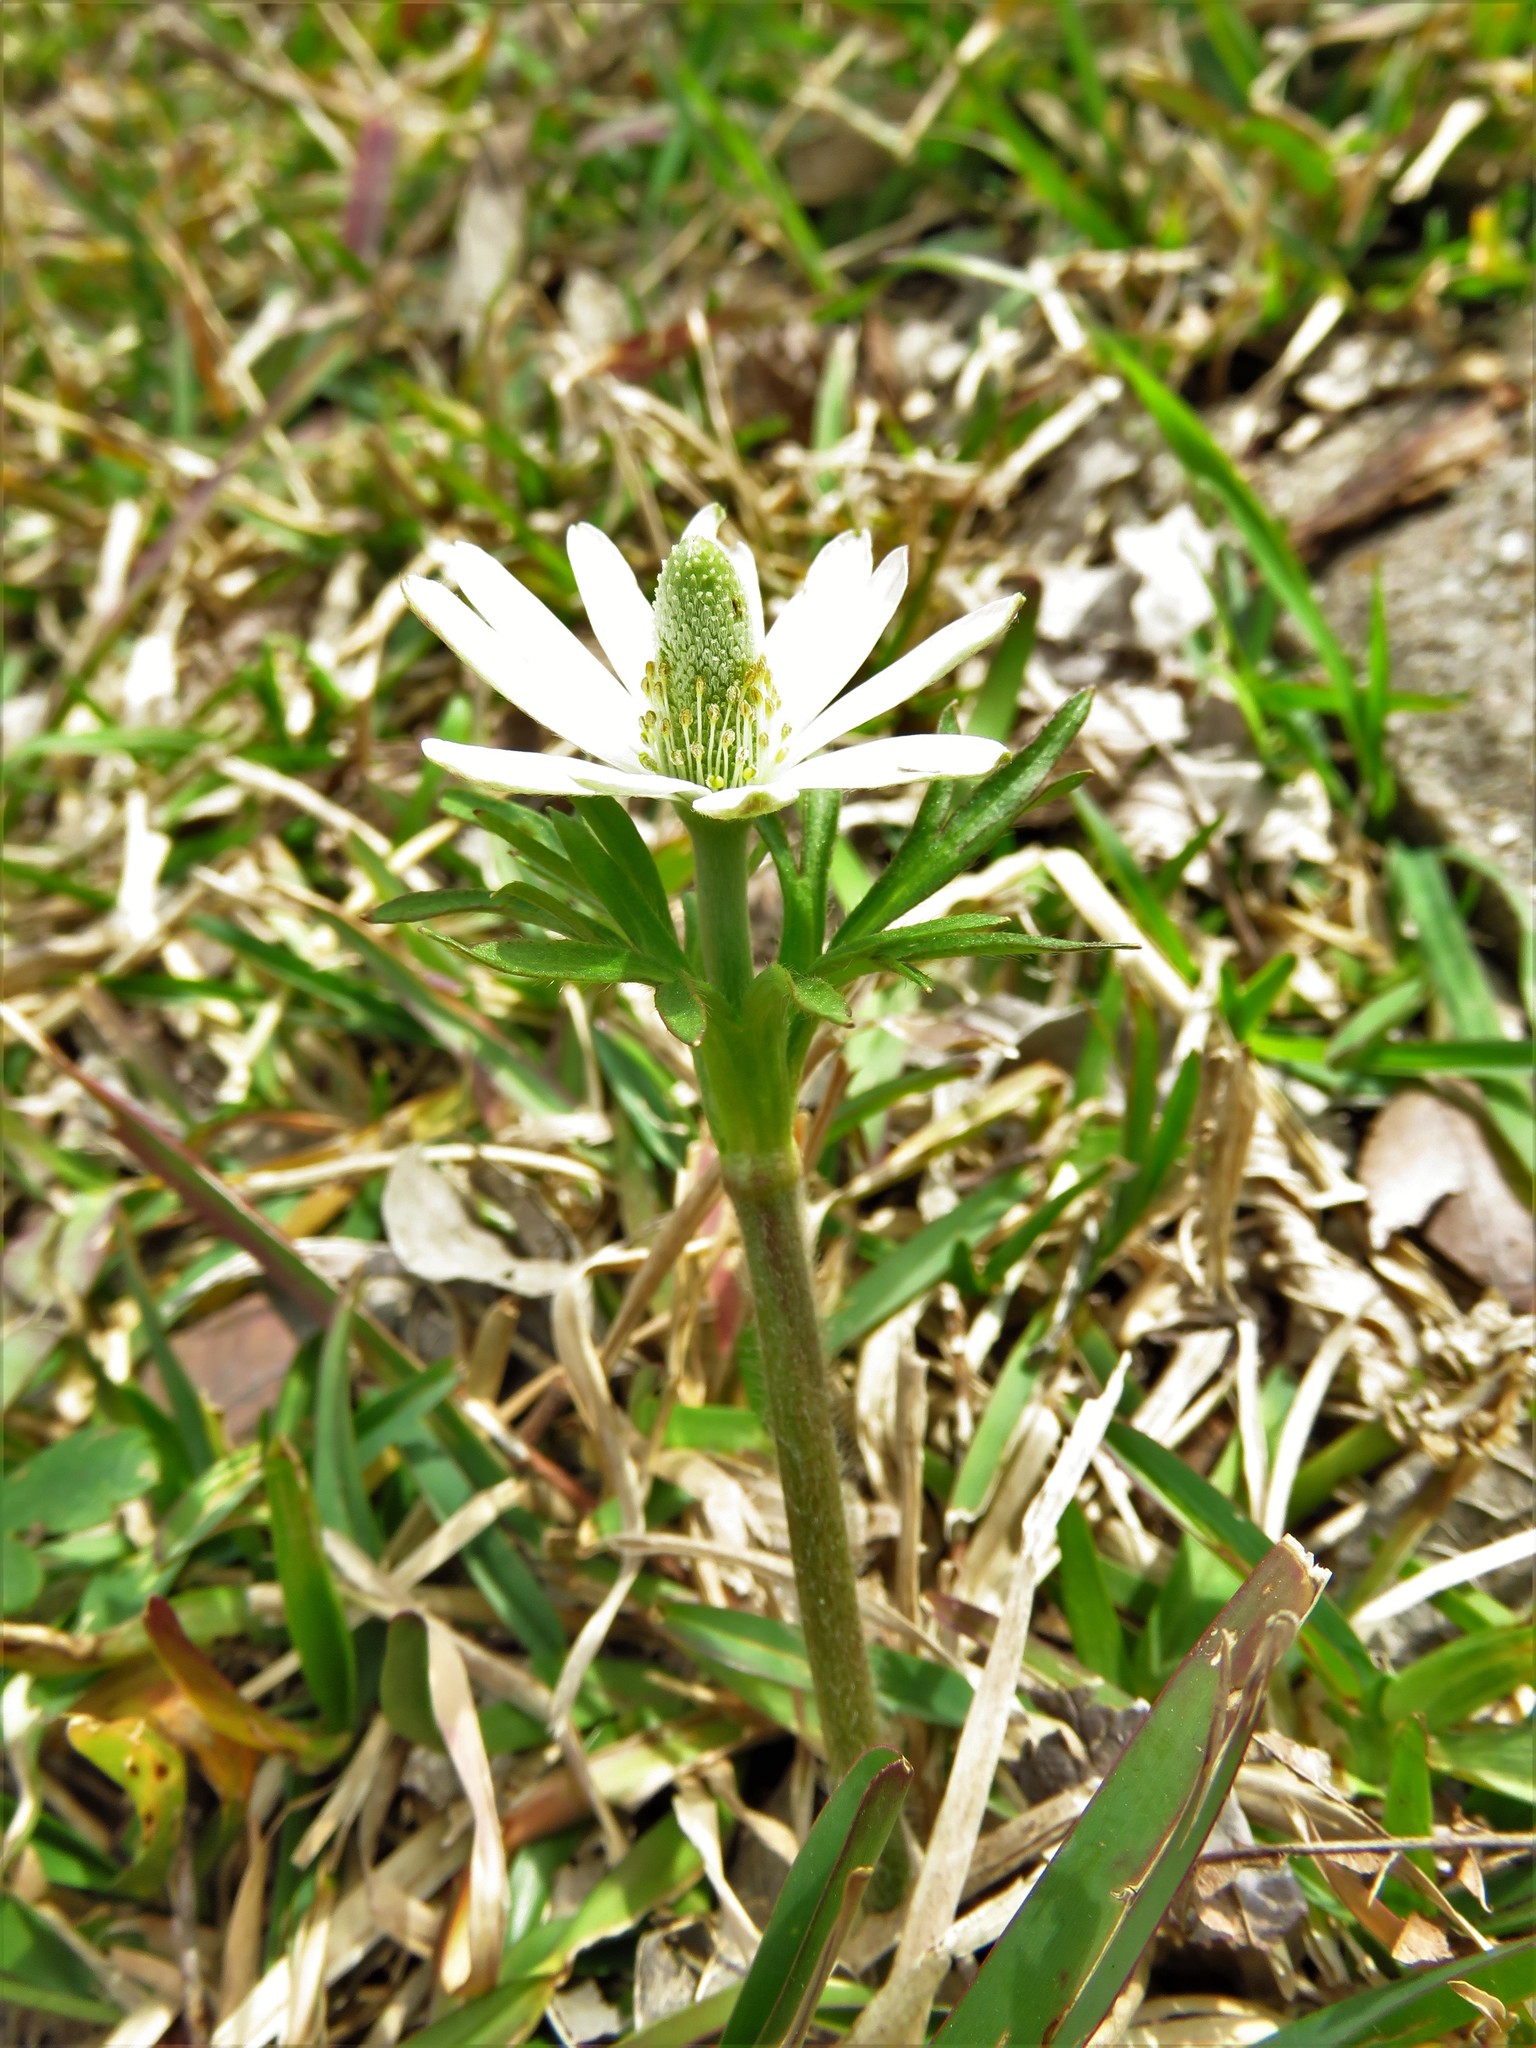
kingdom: Plantae
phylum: Tracheophyta
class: Magnoliopsida
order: Ranunculales
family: Ranunculaceae
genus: Anemone
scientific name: Anemone berlandieri
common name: Ten-petal anemone
